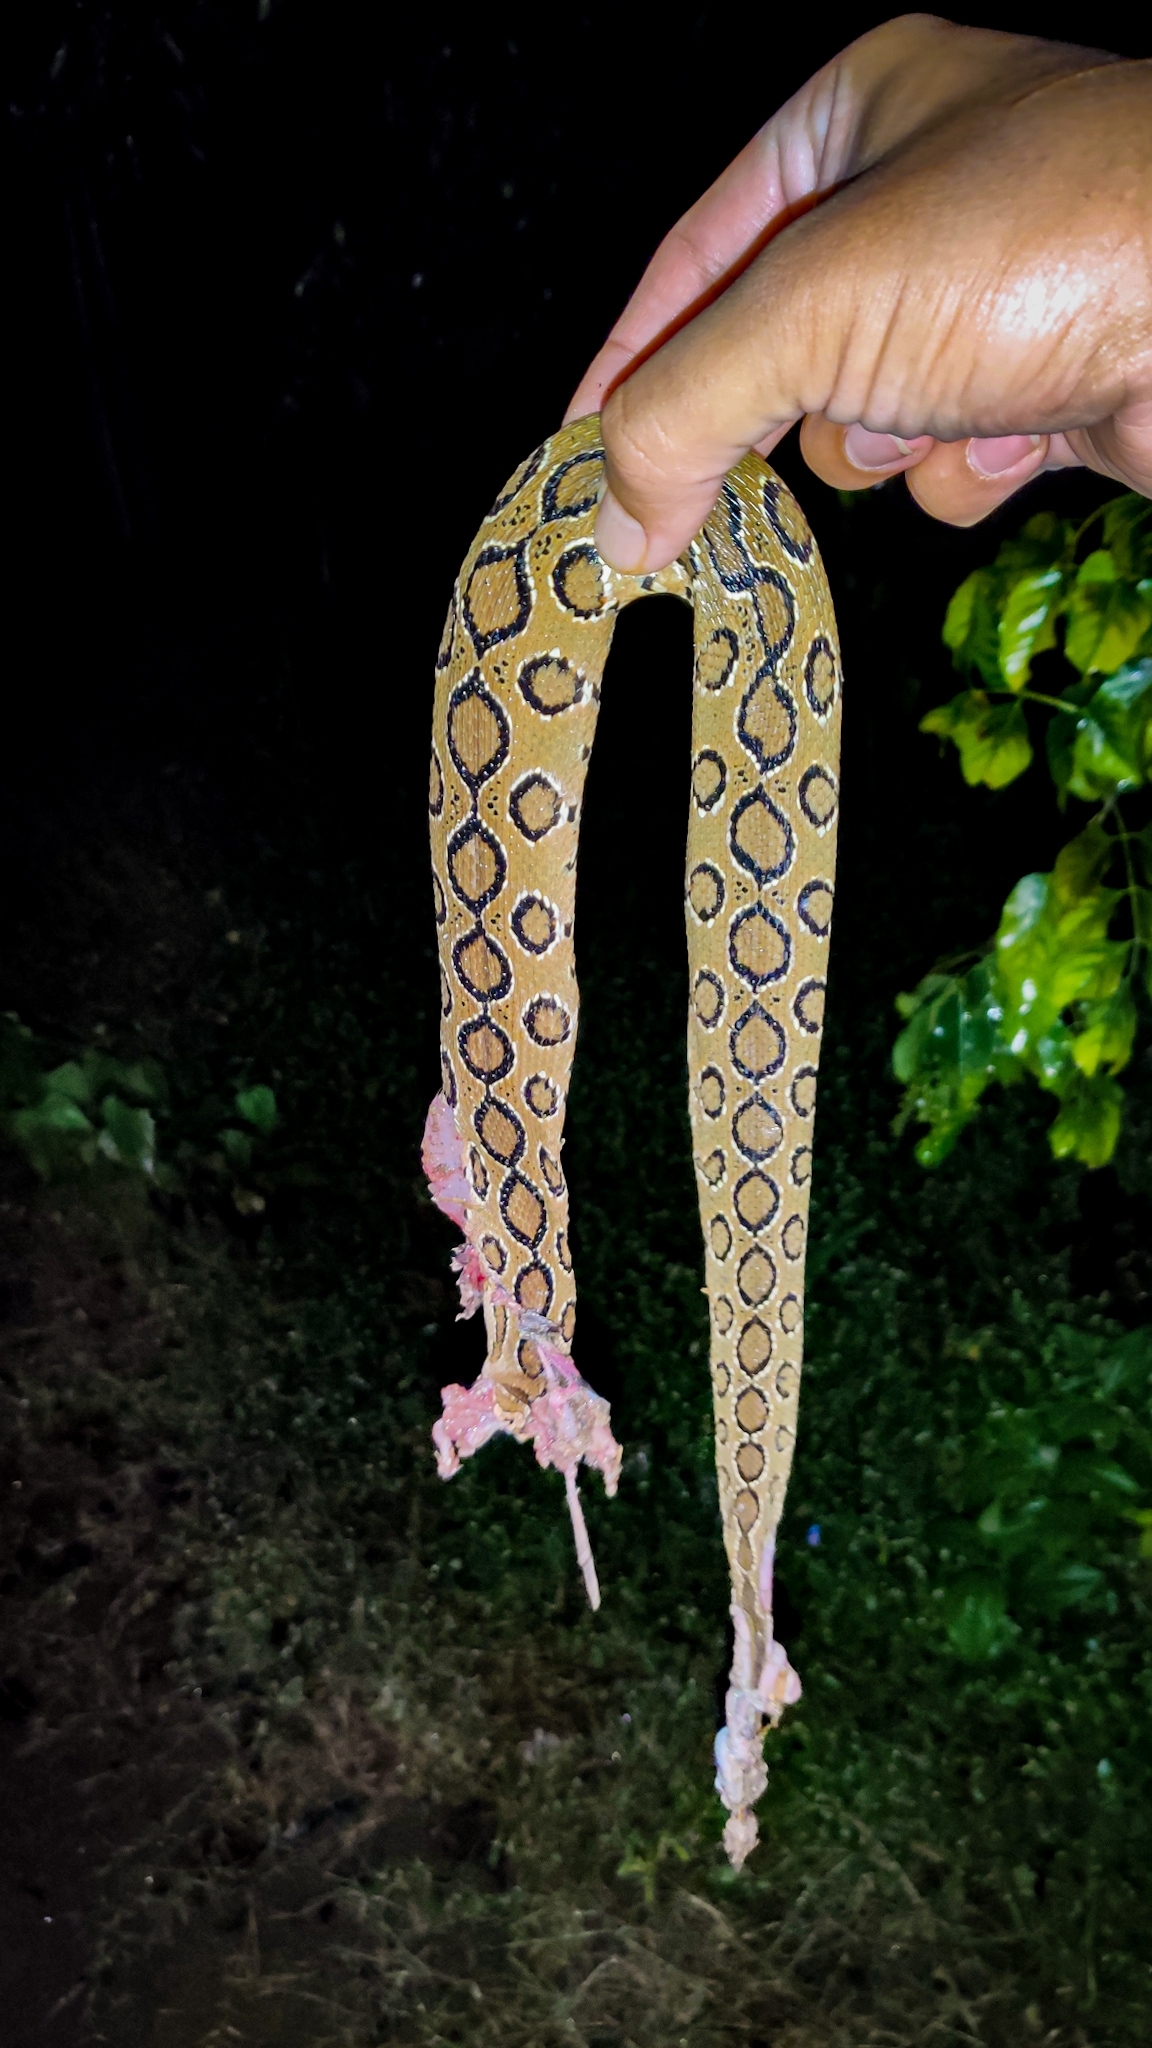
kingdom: Animalia
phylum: Chordata
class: Squamata
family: Viperidae
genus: Daboia
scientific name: Daboia russelii
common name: Western russel’s viper
